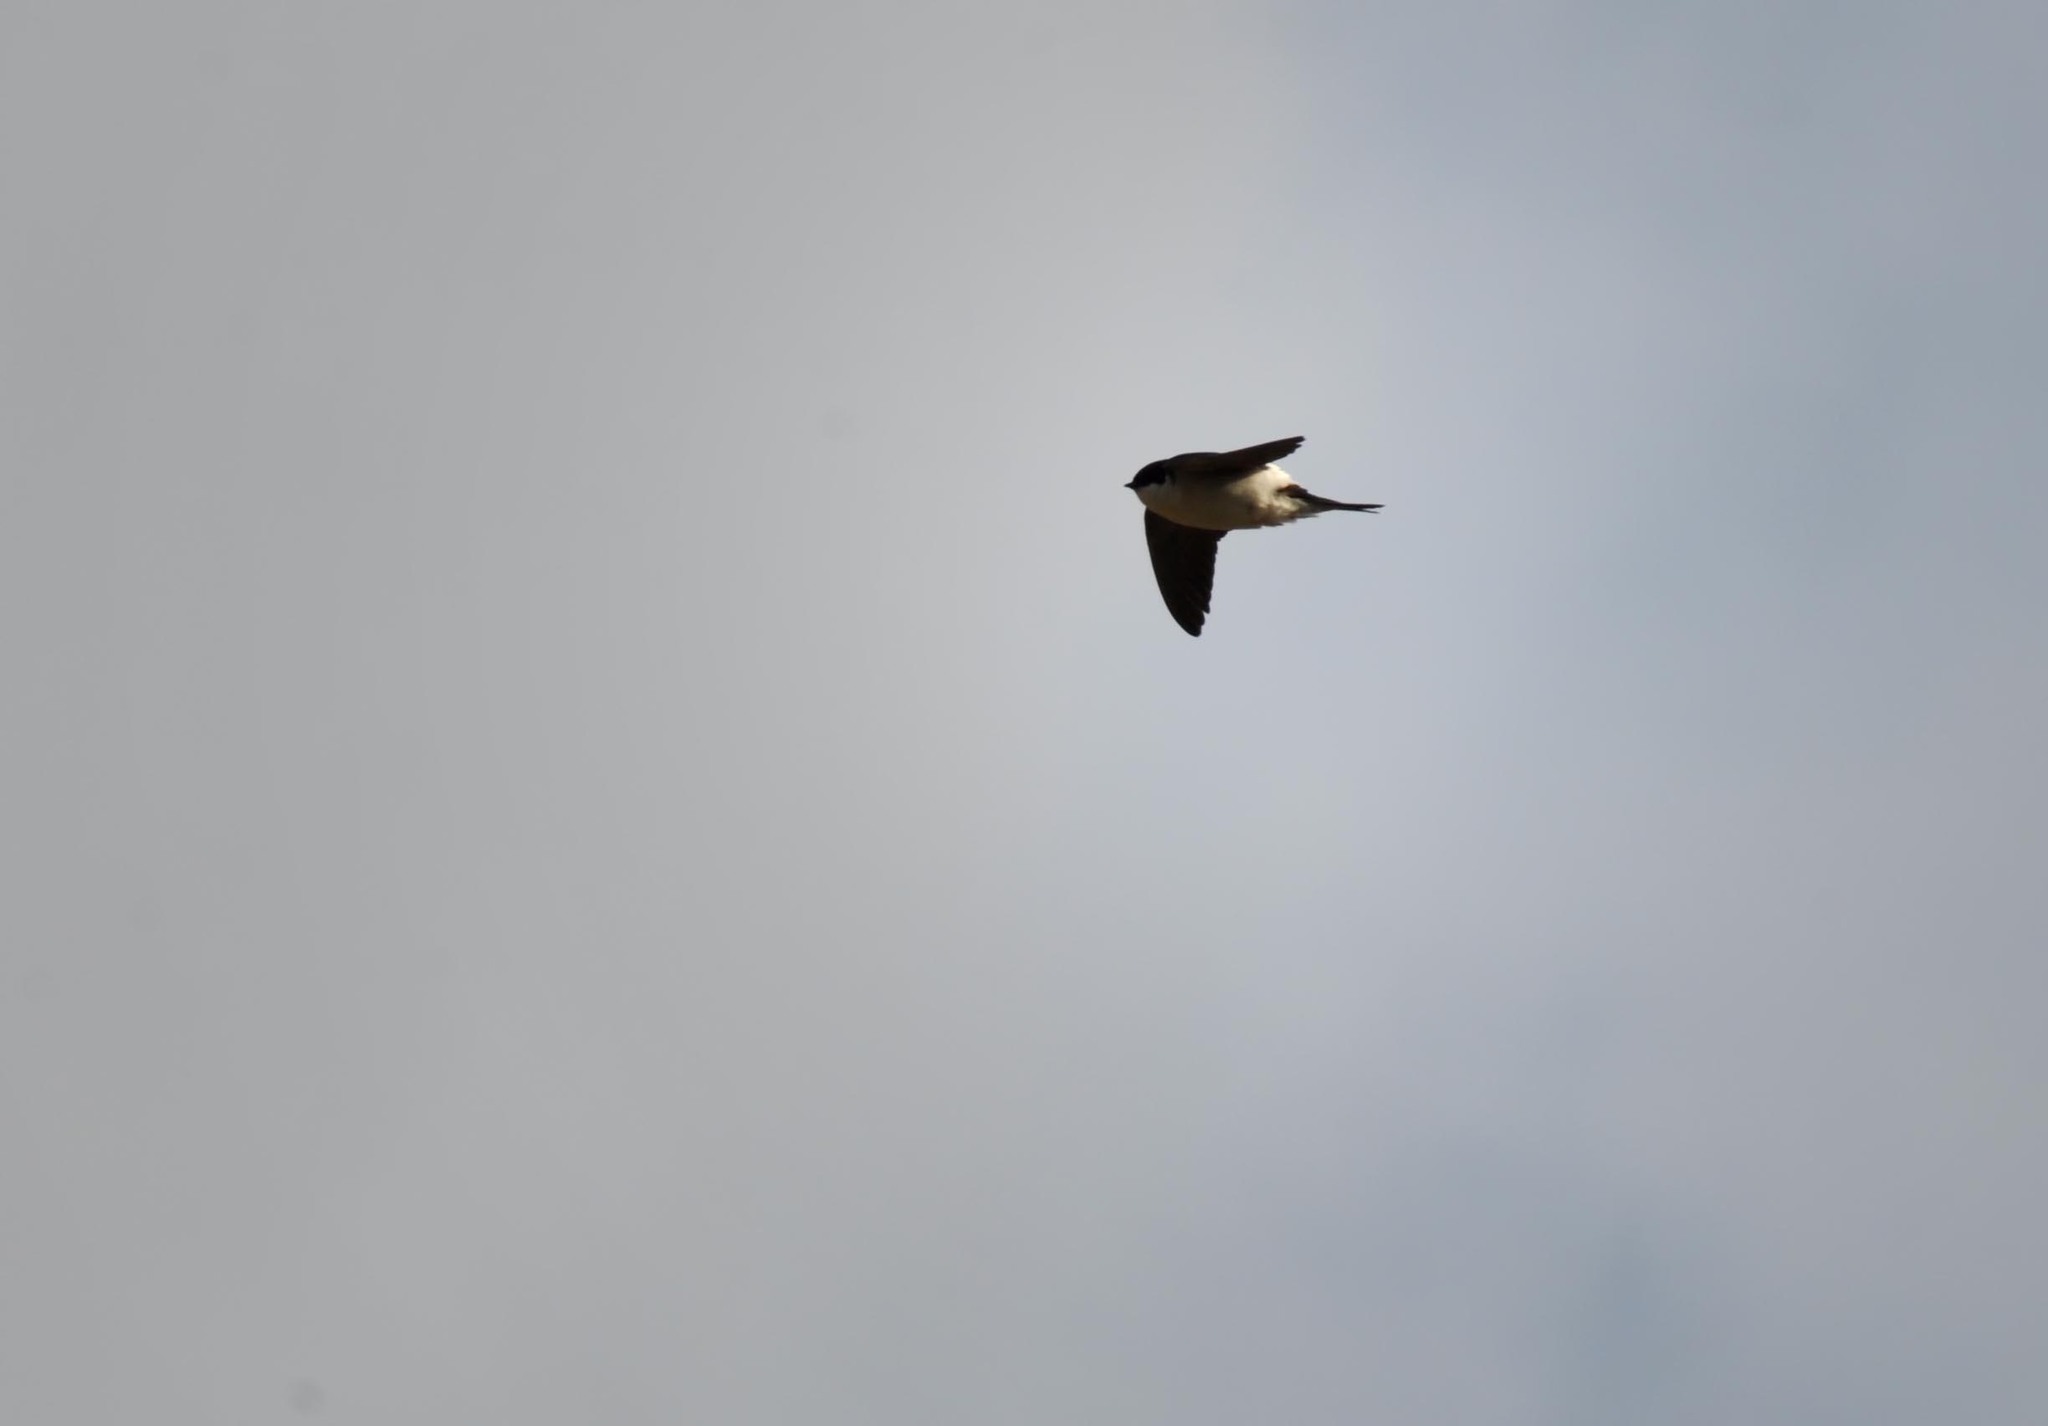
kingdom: Animalia
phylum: Chordata
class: Aves
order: Passeriformes
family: Hirundinidae
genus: Delichon
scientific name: Delichon urbicum
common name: Common house martin
